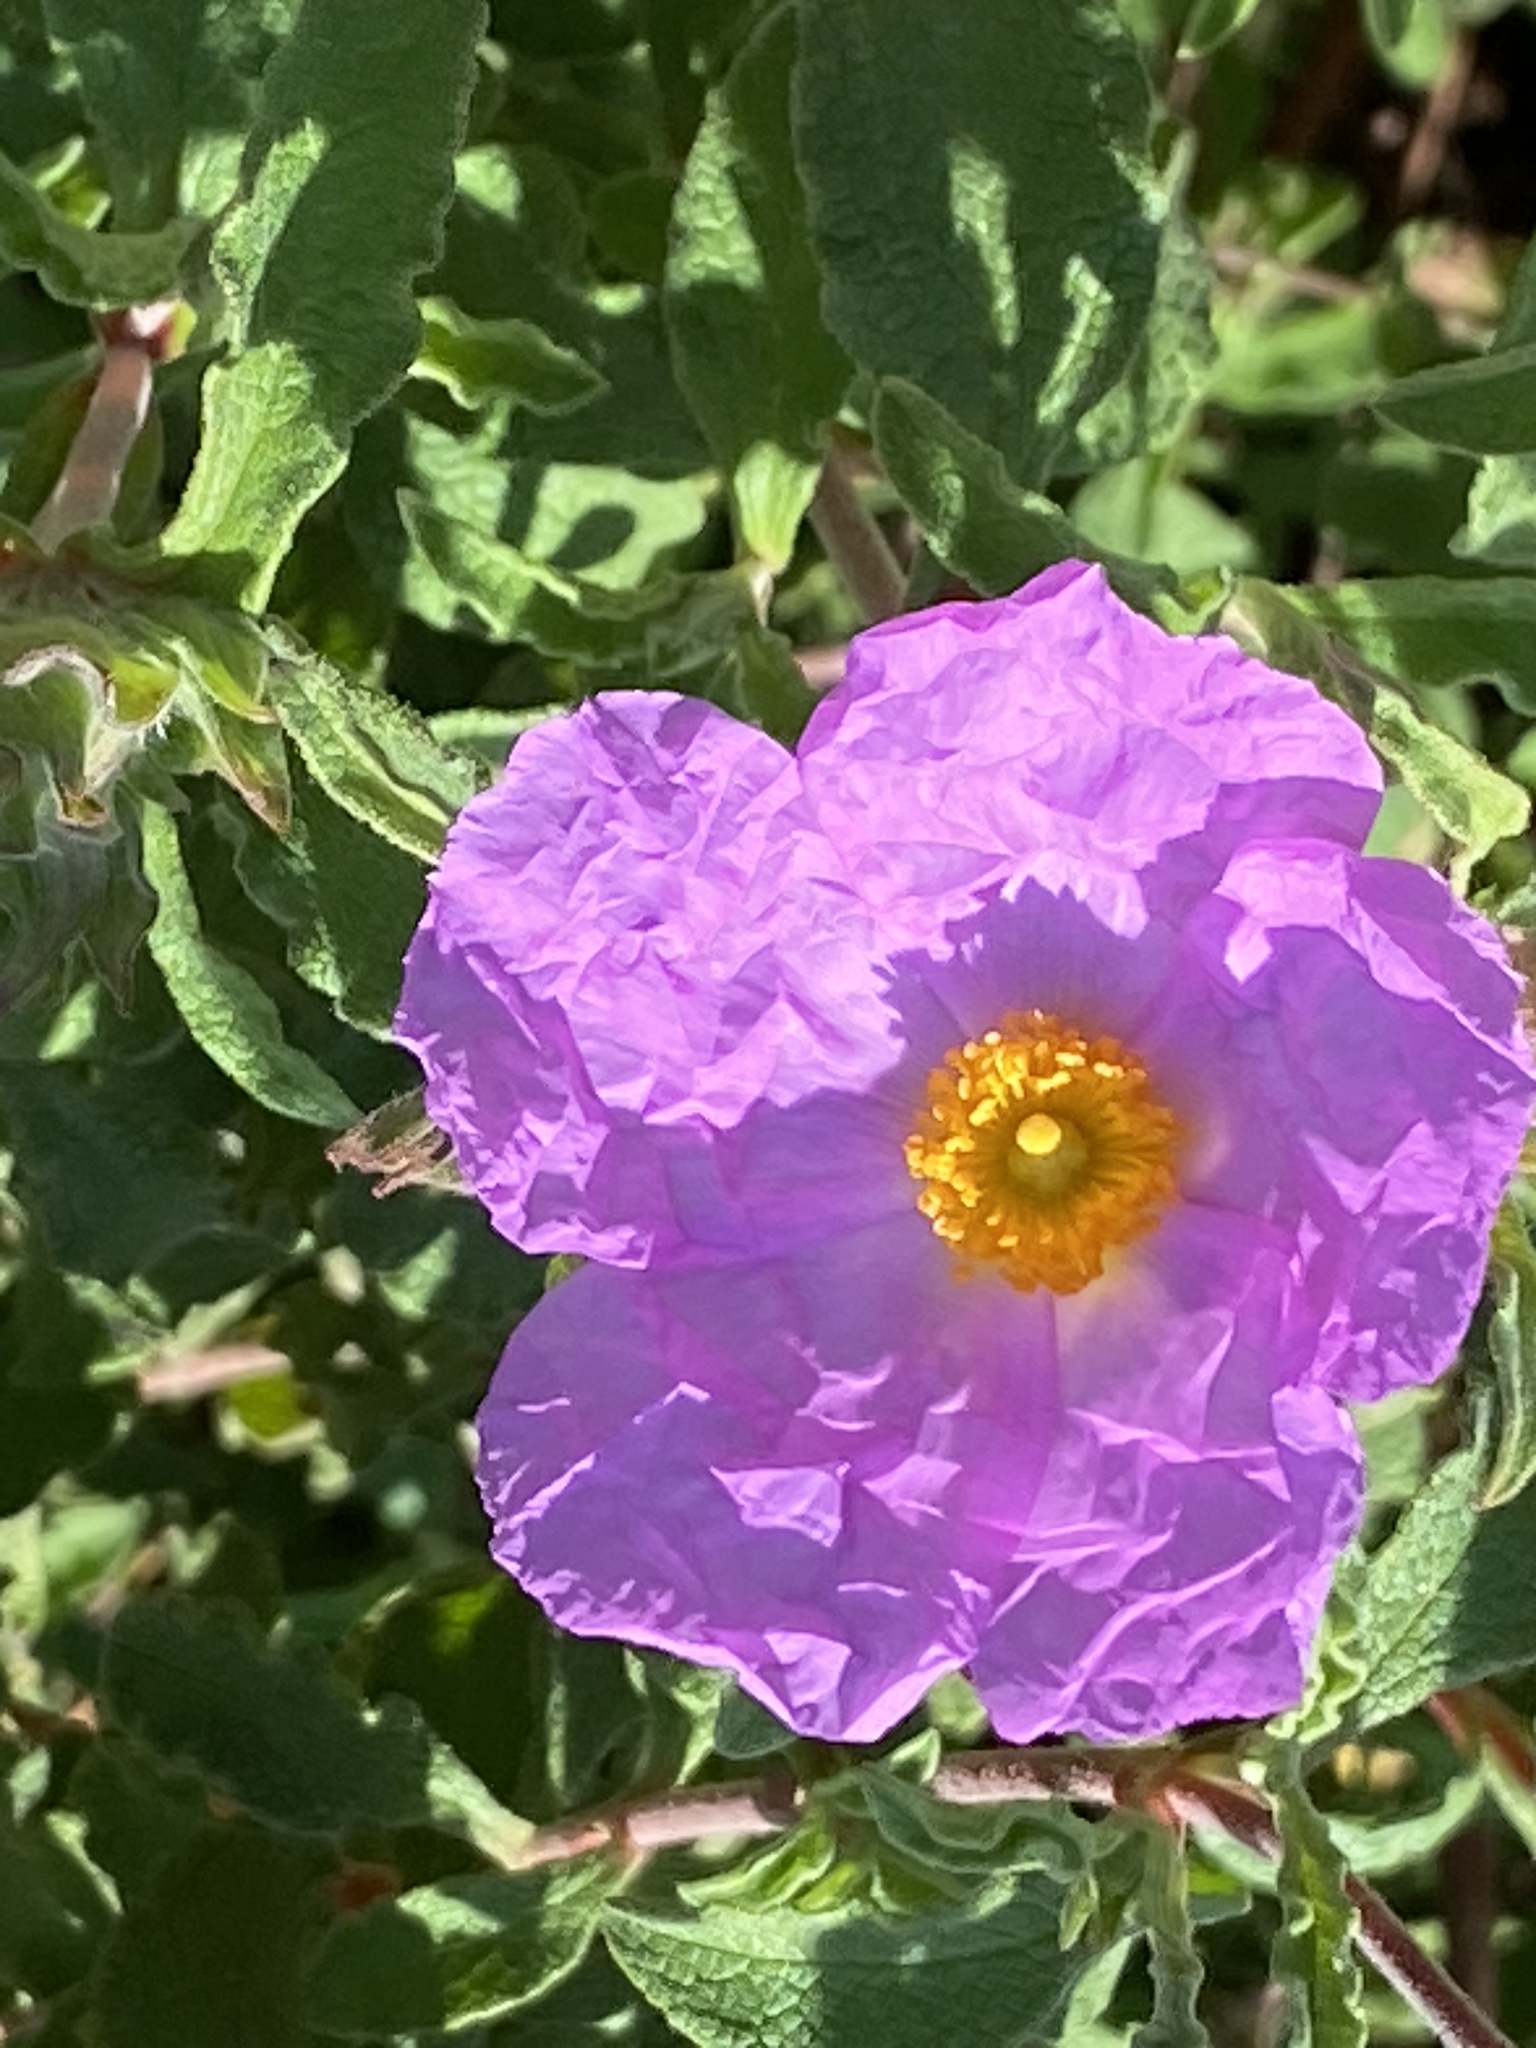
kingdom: Plantae
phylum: Tracheophyta
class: Magnoliopsida
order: Malvales
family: Cistaceae
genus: Cistus
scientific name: Cistus creticus
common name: Cretan rockrose
